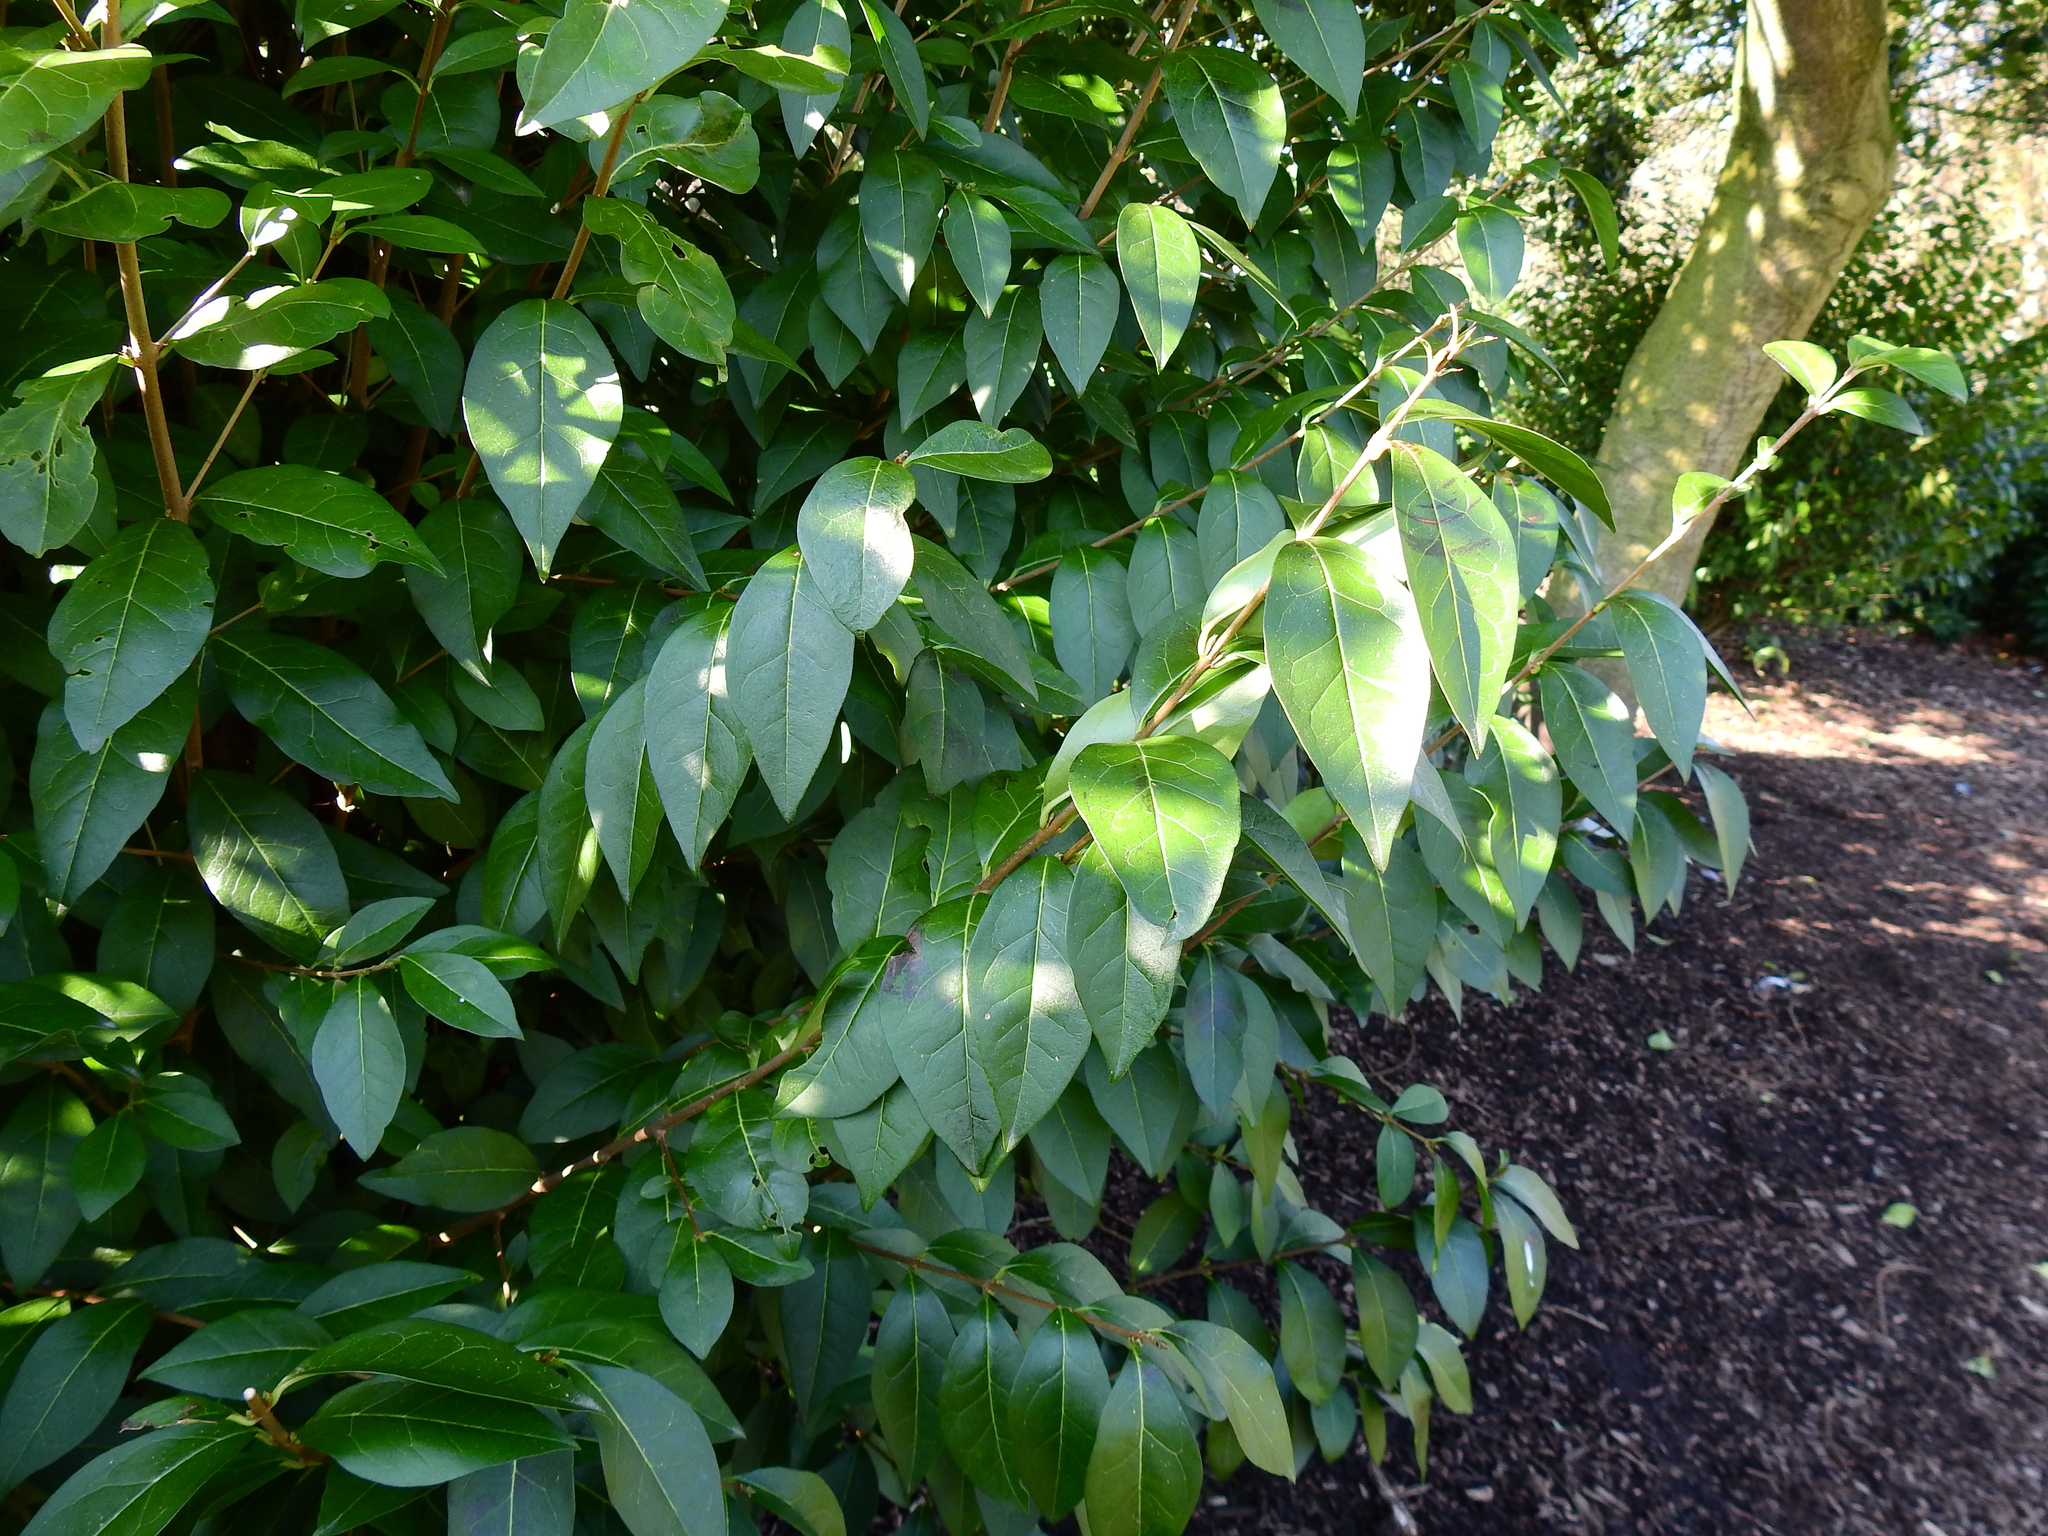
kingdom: Plantae
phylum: Tracheophyta
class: Magnoliopsida
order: Lamiales
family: Oleaceae
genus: Ligustrum
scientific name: Ligustrum ovalifolium
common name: California privet
